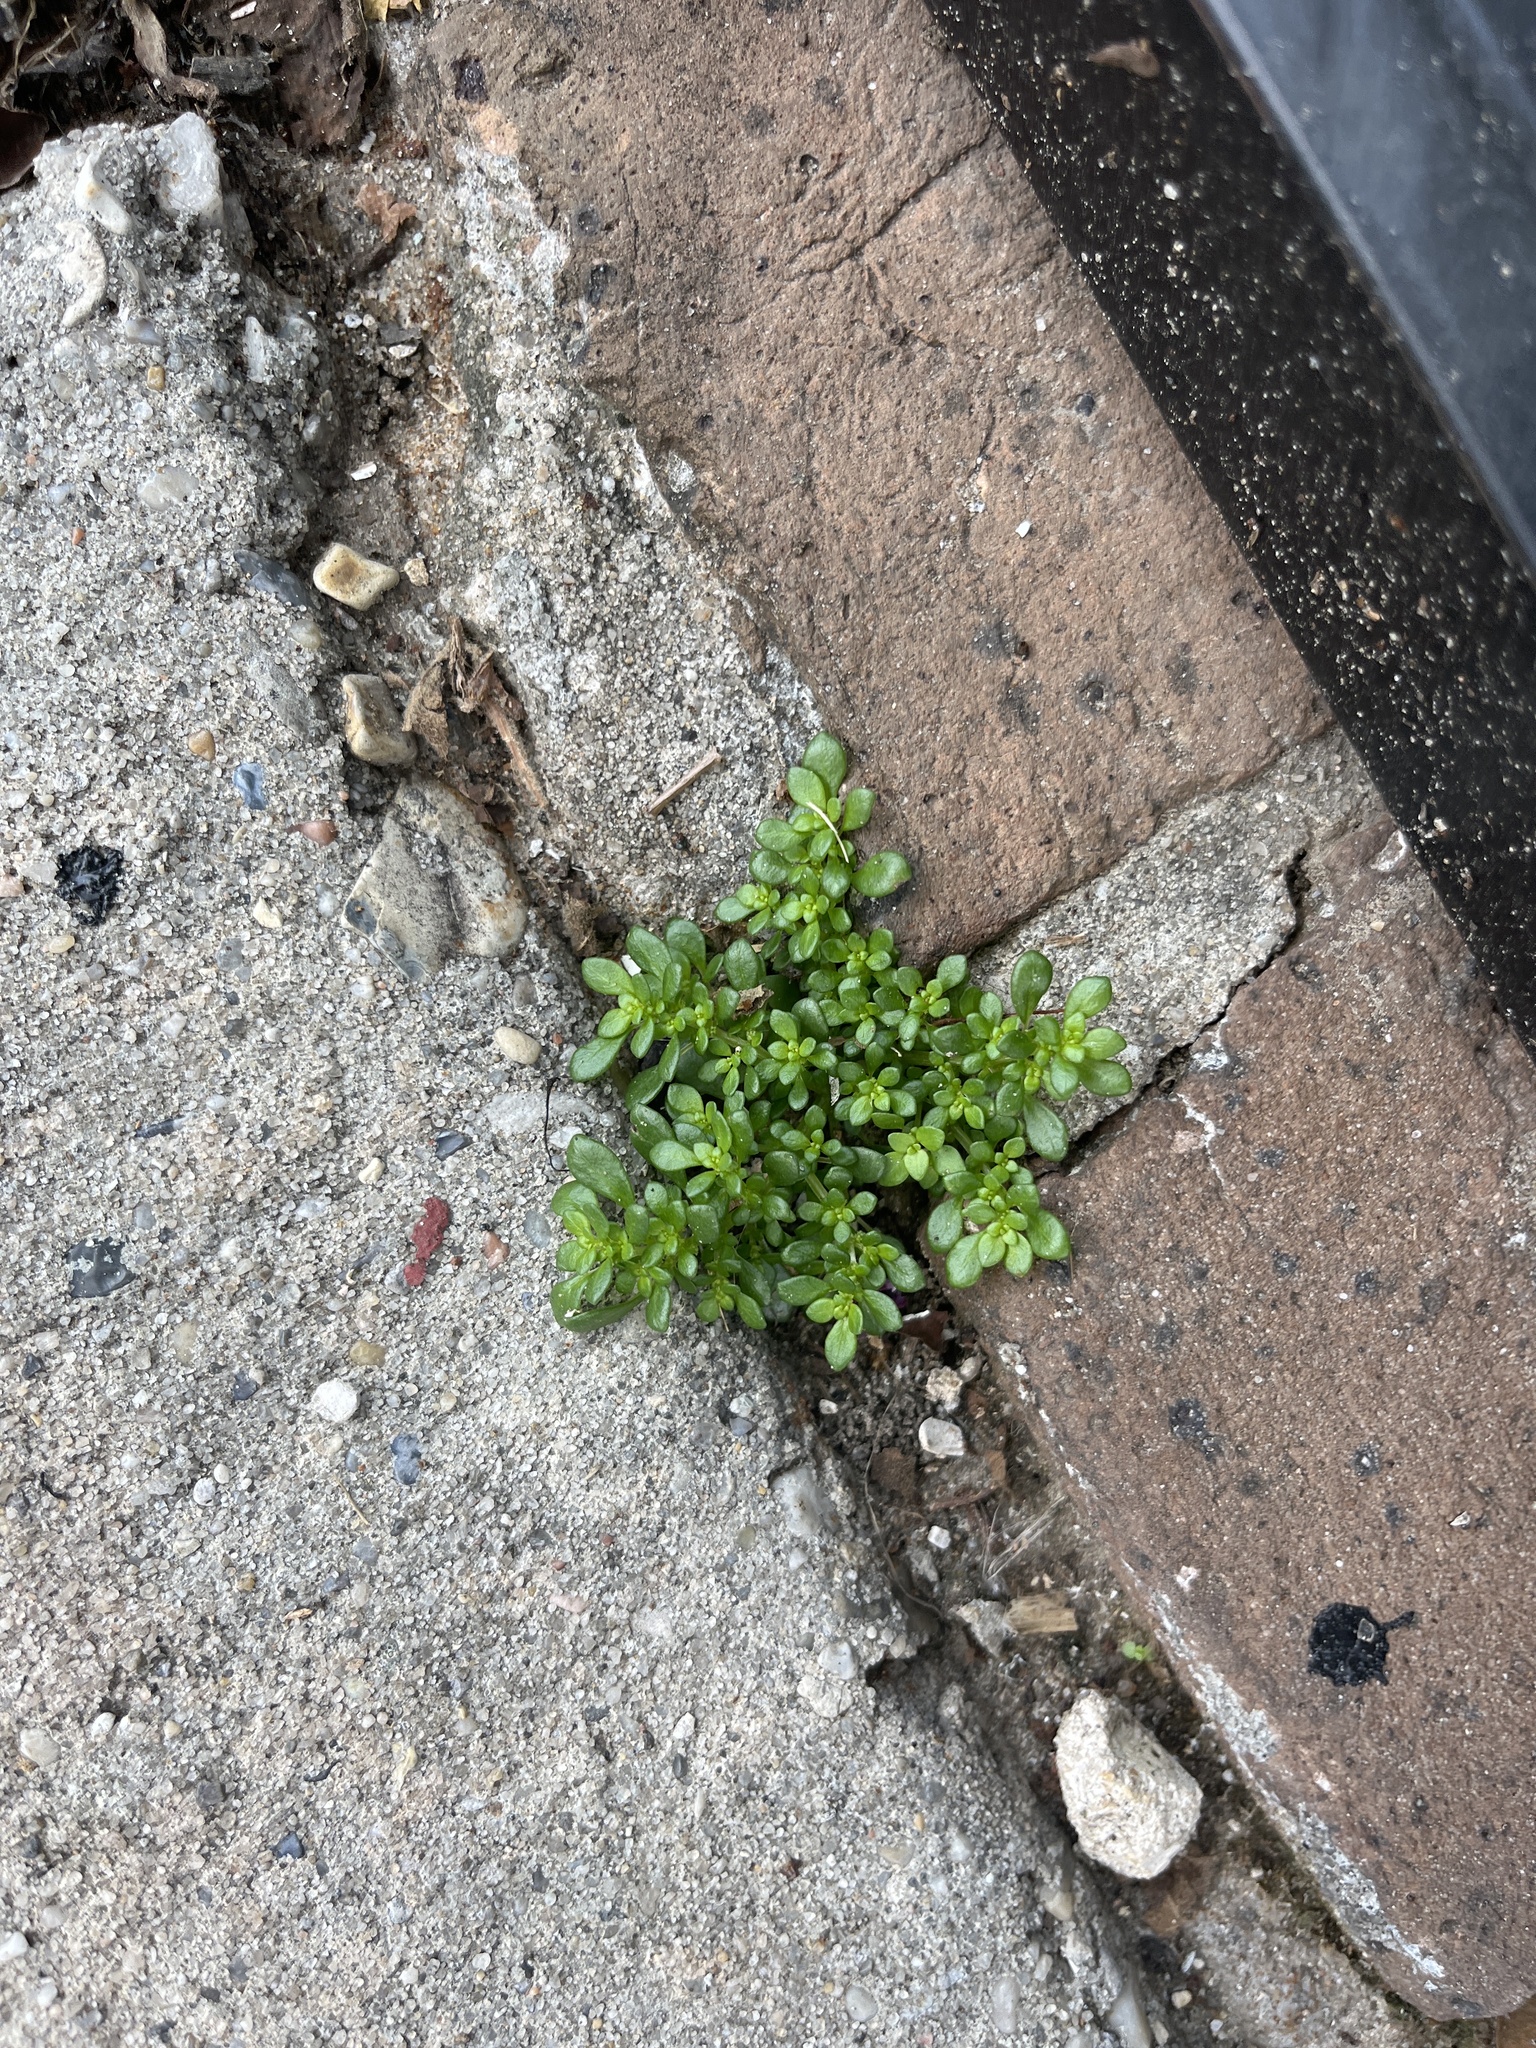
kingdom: Plantae
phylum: Tracheophyta
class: Magnoliopsida
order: Rosales
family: Urticaceae
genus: Pilea
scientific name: Pilea microphylla
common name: Artillery-plant
